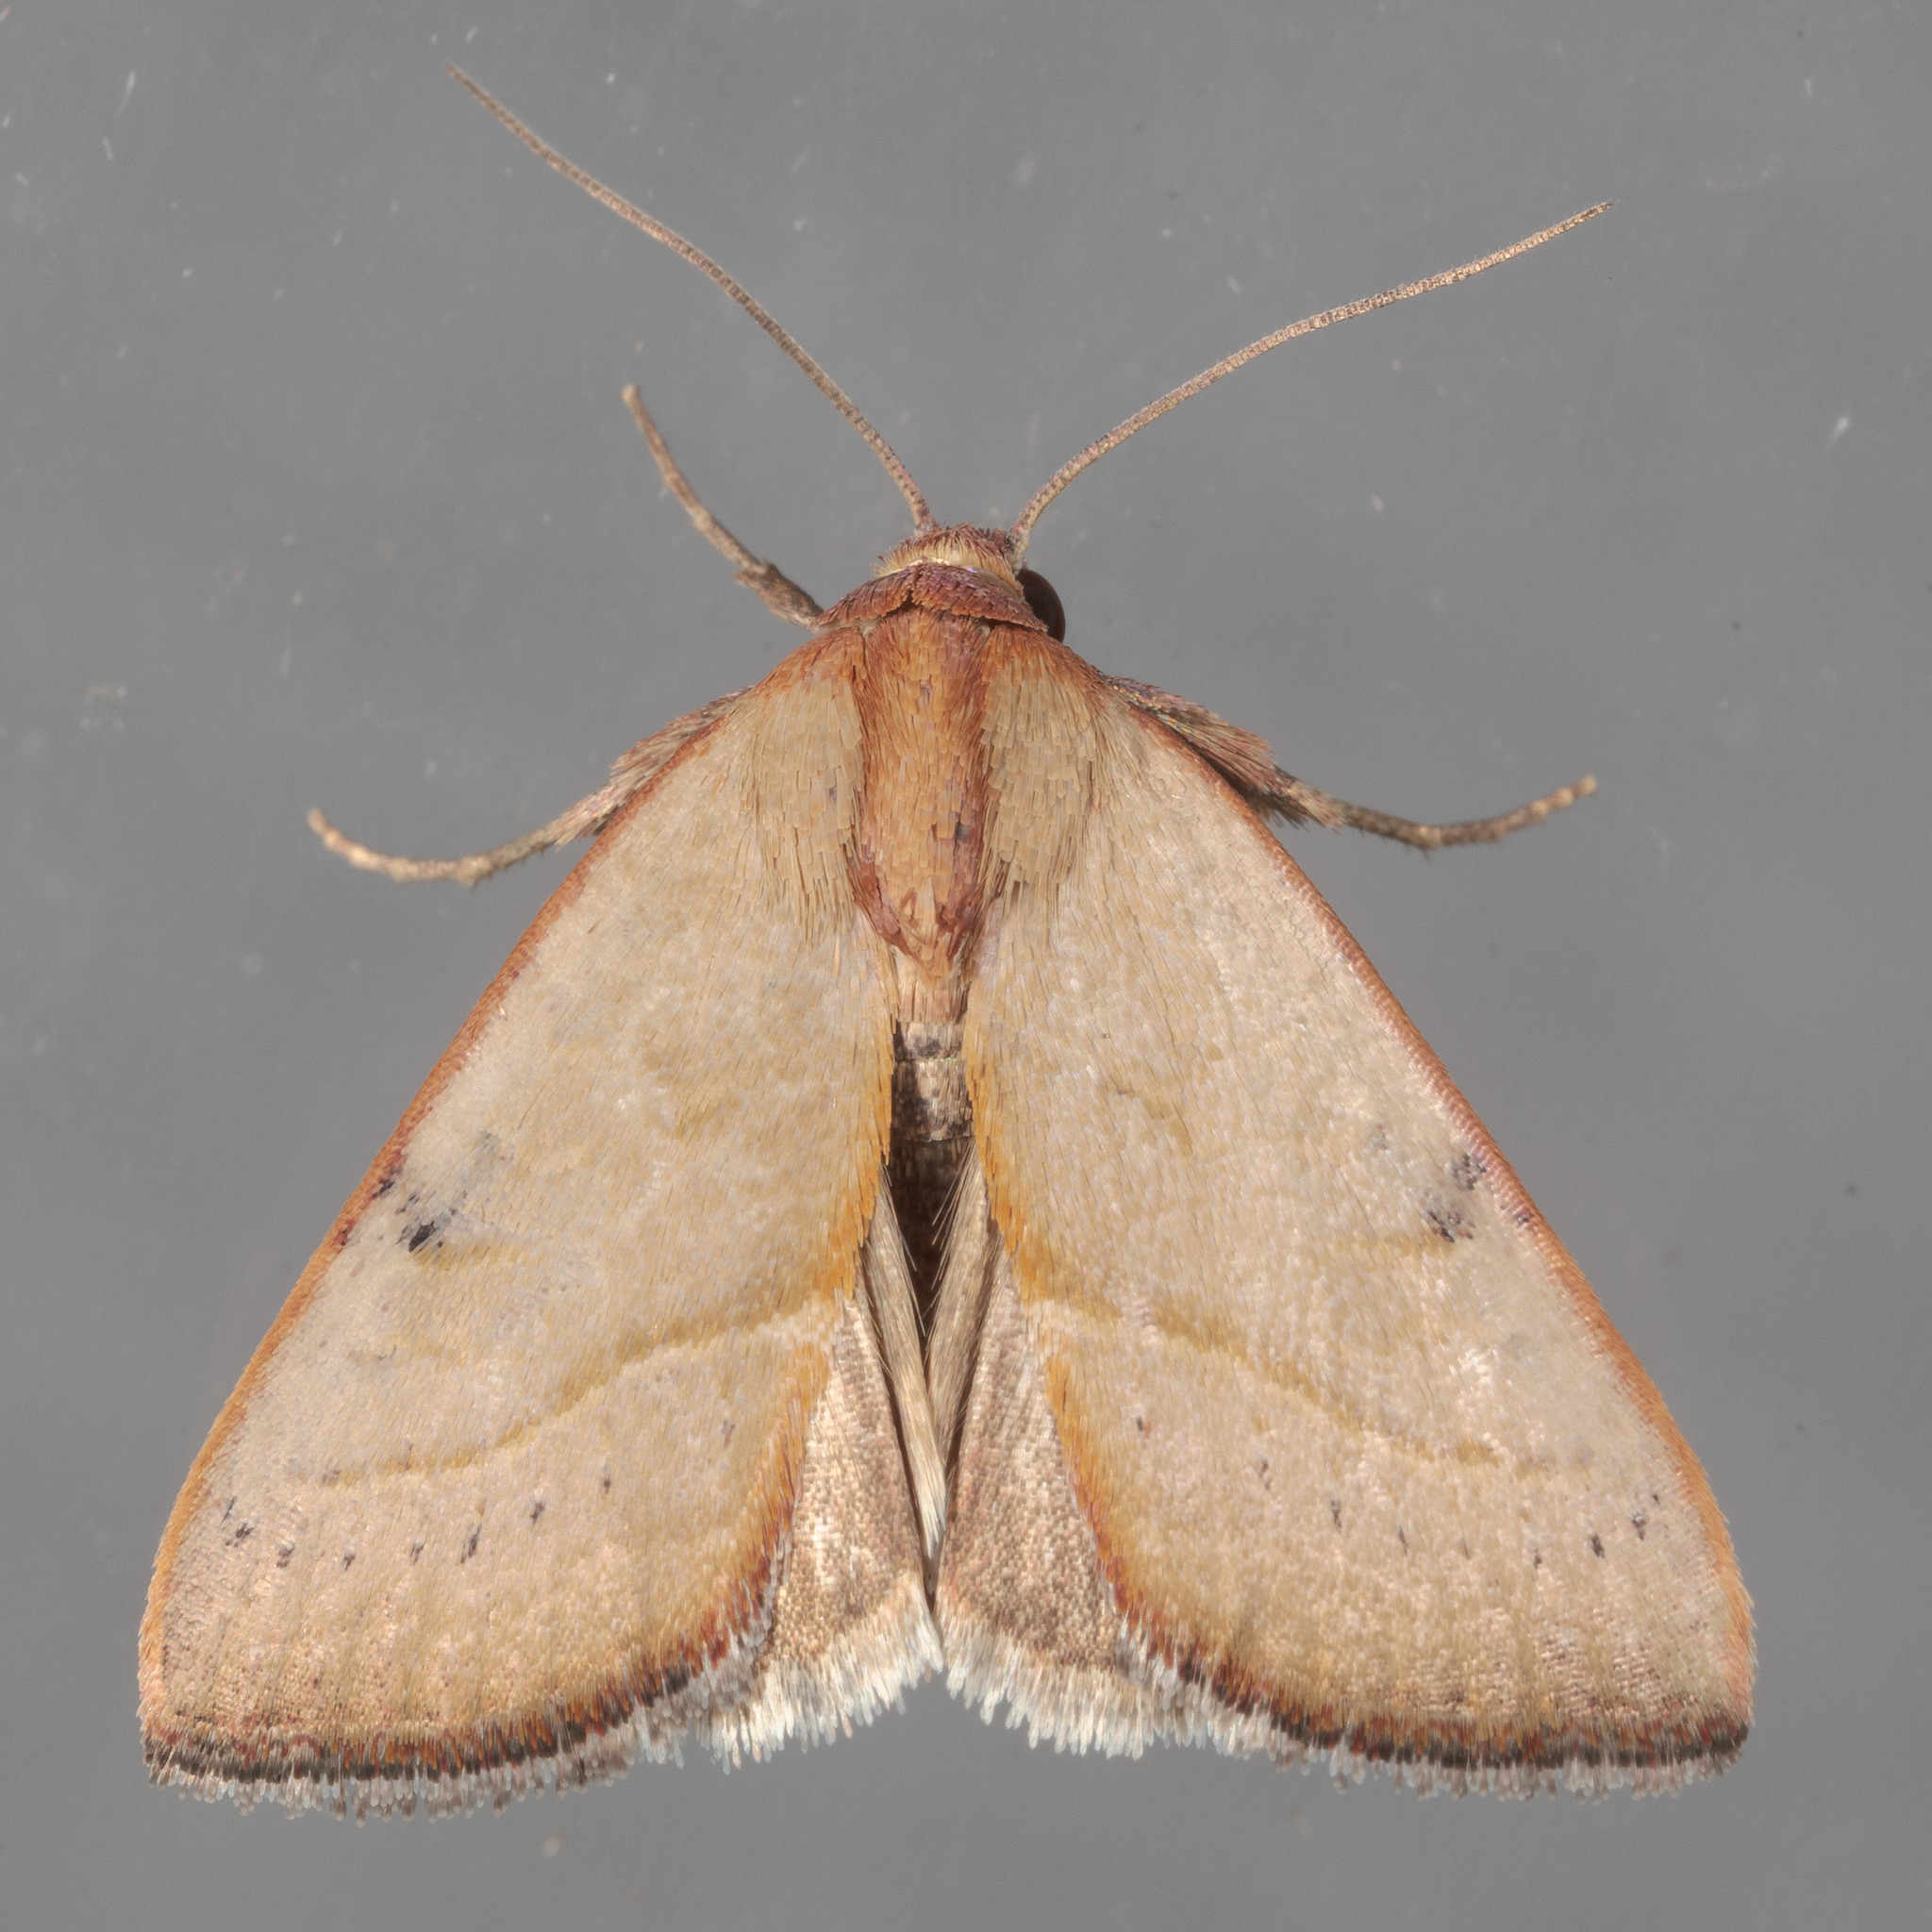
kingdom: Animalia
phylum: Arthropoda
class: Insecta
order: Lepidoptera
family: Noctuidae
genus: Galgula
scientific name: Galgula partita
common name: Wedgeling
